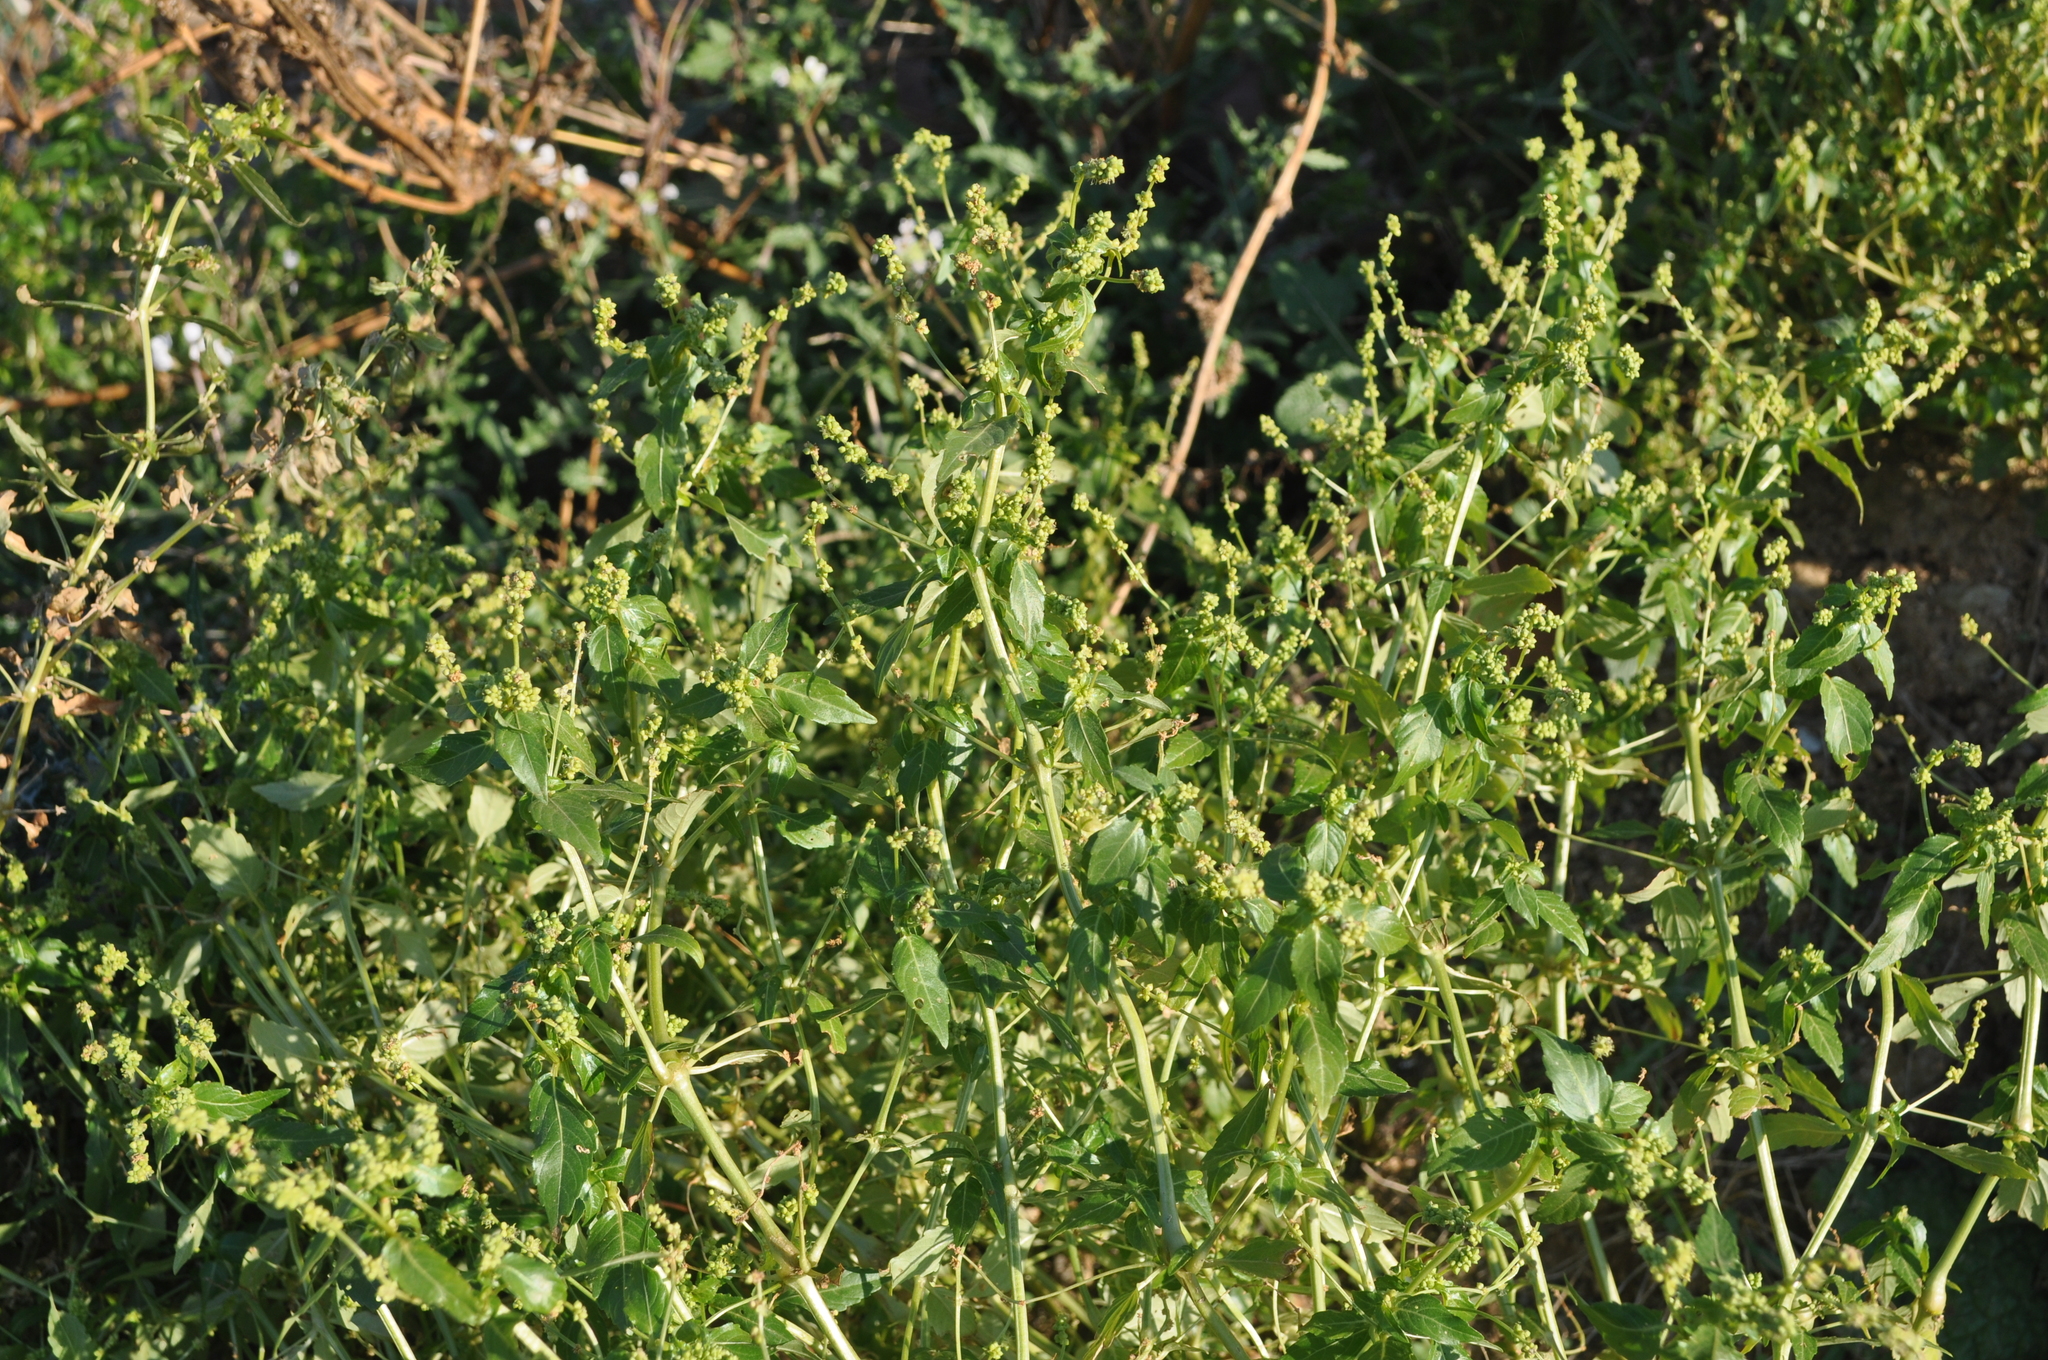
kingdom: Plantae
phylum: Tracheophyta
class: Magnoliopsida
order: Malpighiales
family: Euphorbiaceae
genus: Mercurialis
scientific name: Mercurialis annua
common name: Annual mercury
